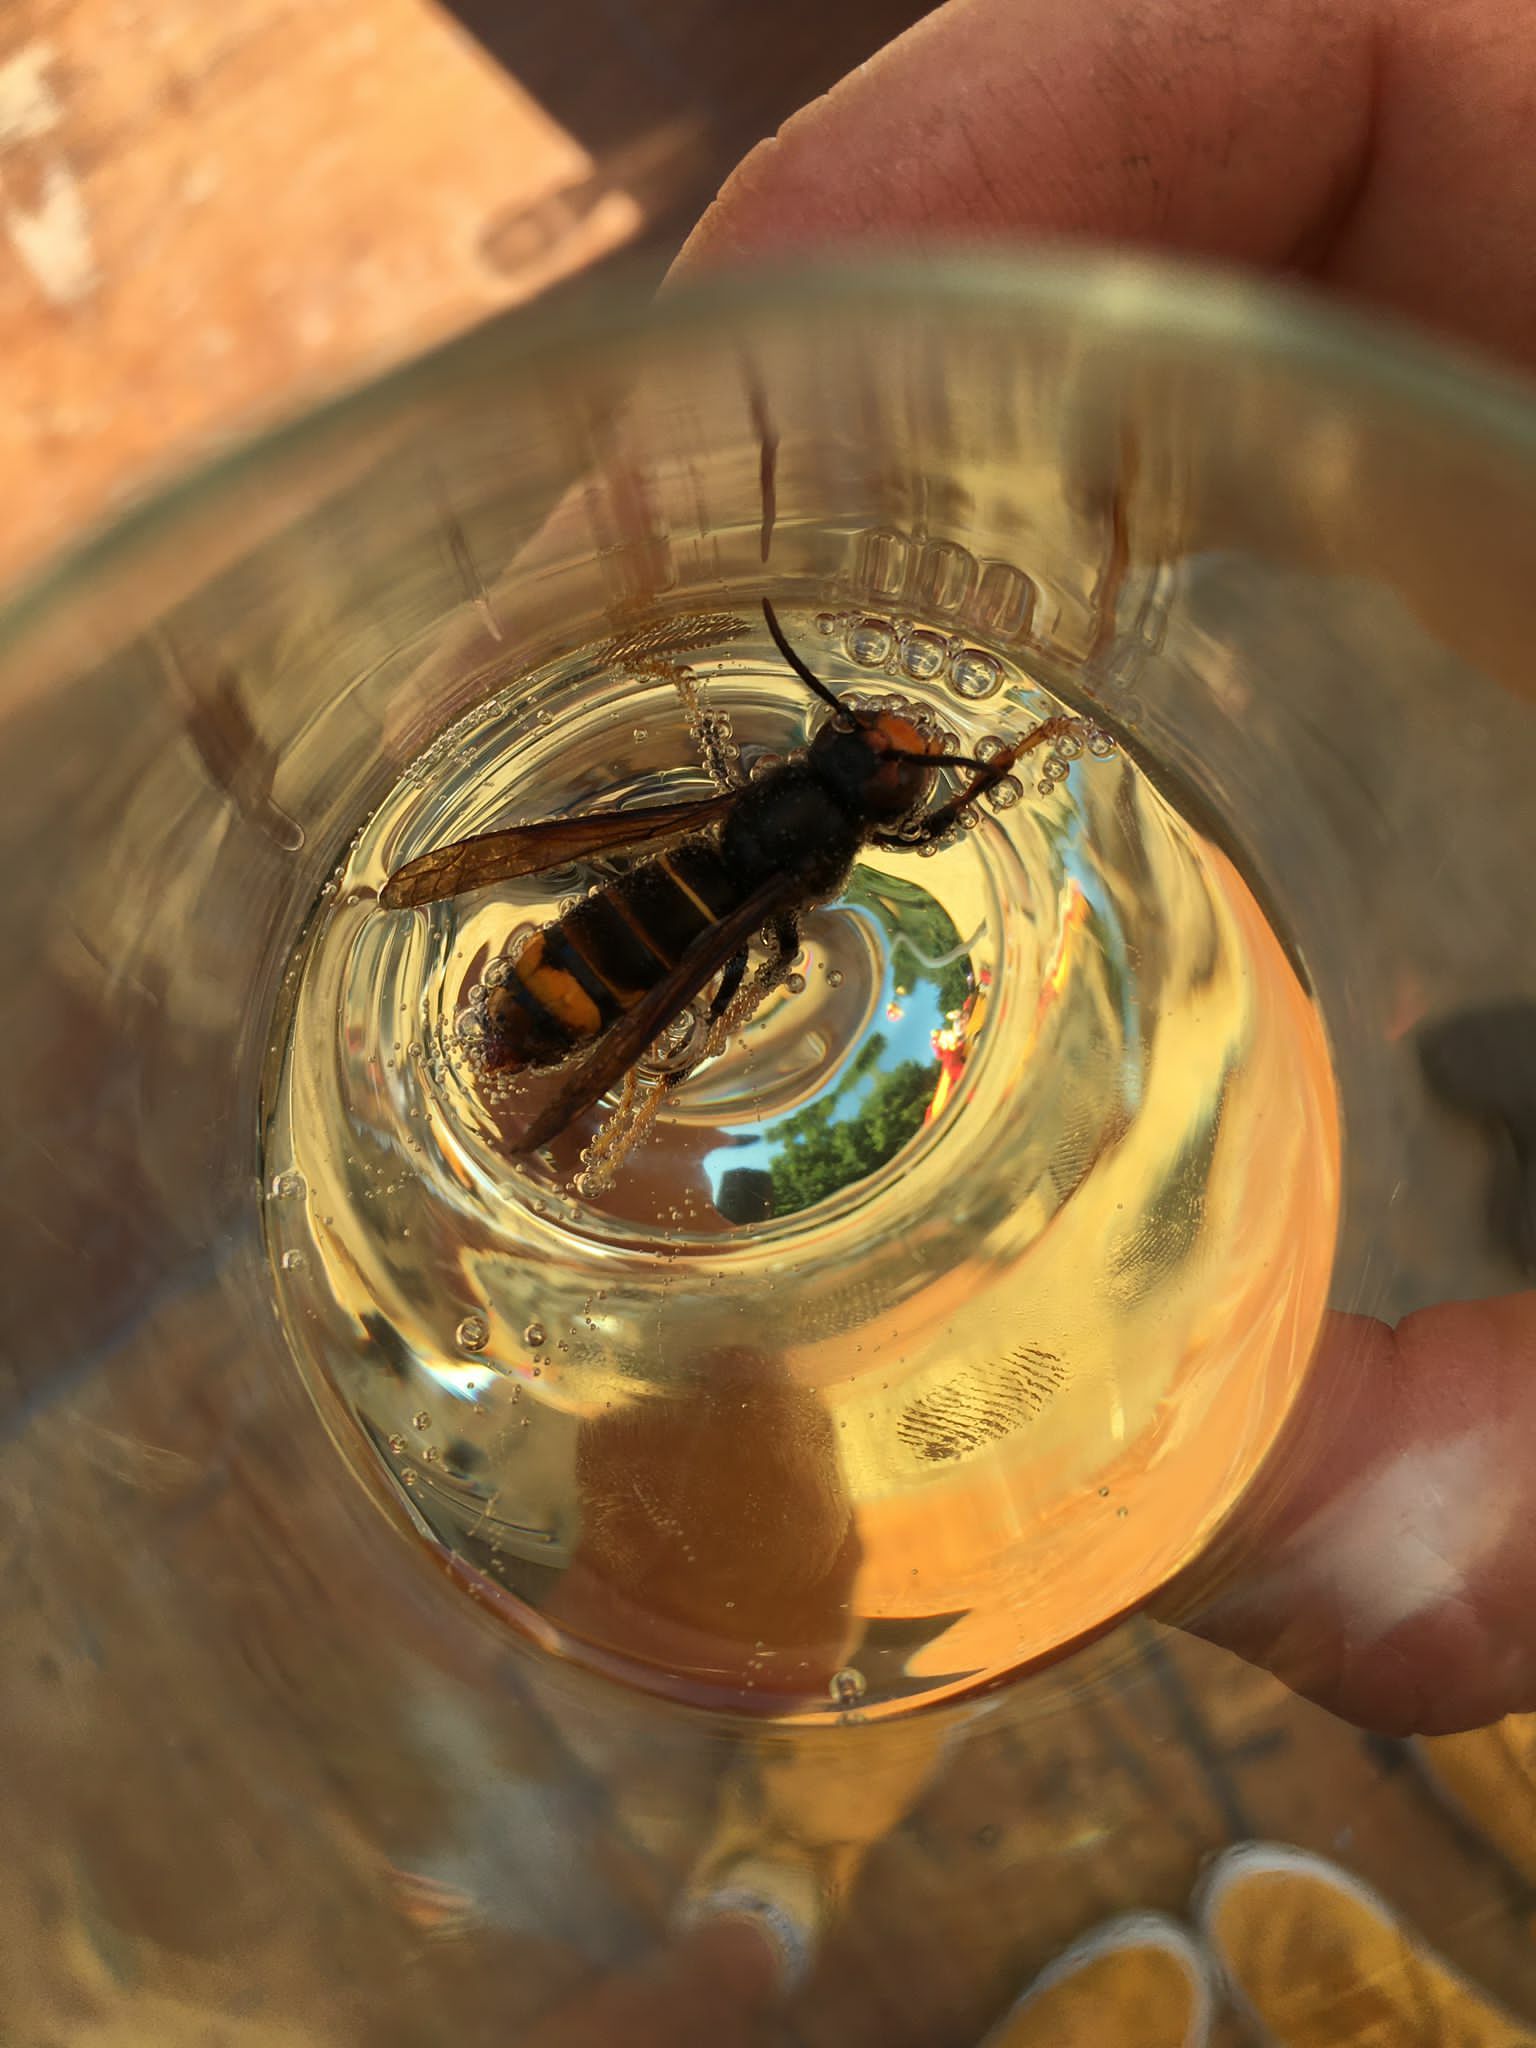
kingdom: Animalia
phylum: Arthropoda
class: Insecta
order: Hymenoptera
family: Vespidae
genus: Vespa
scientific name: Vespa velutina
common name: Asian hornet
